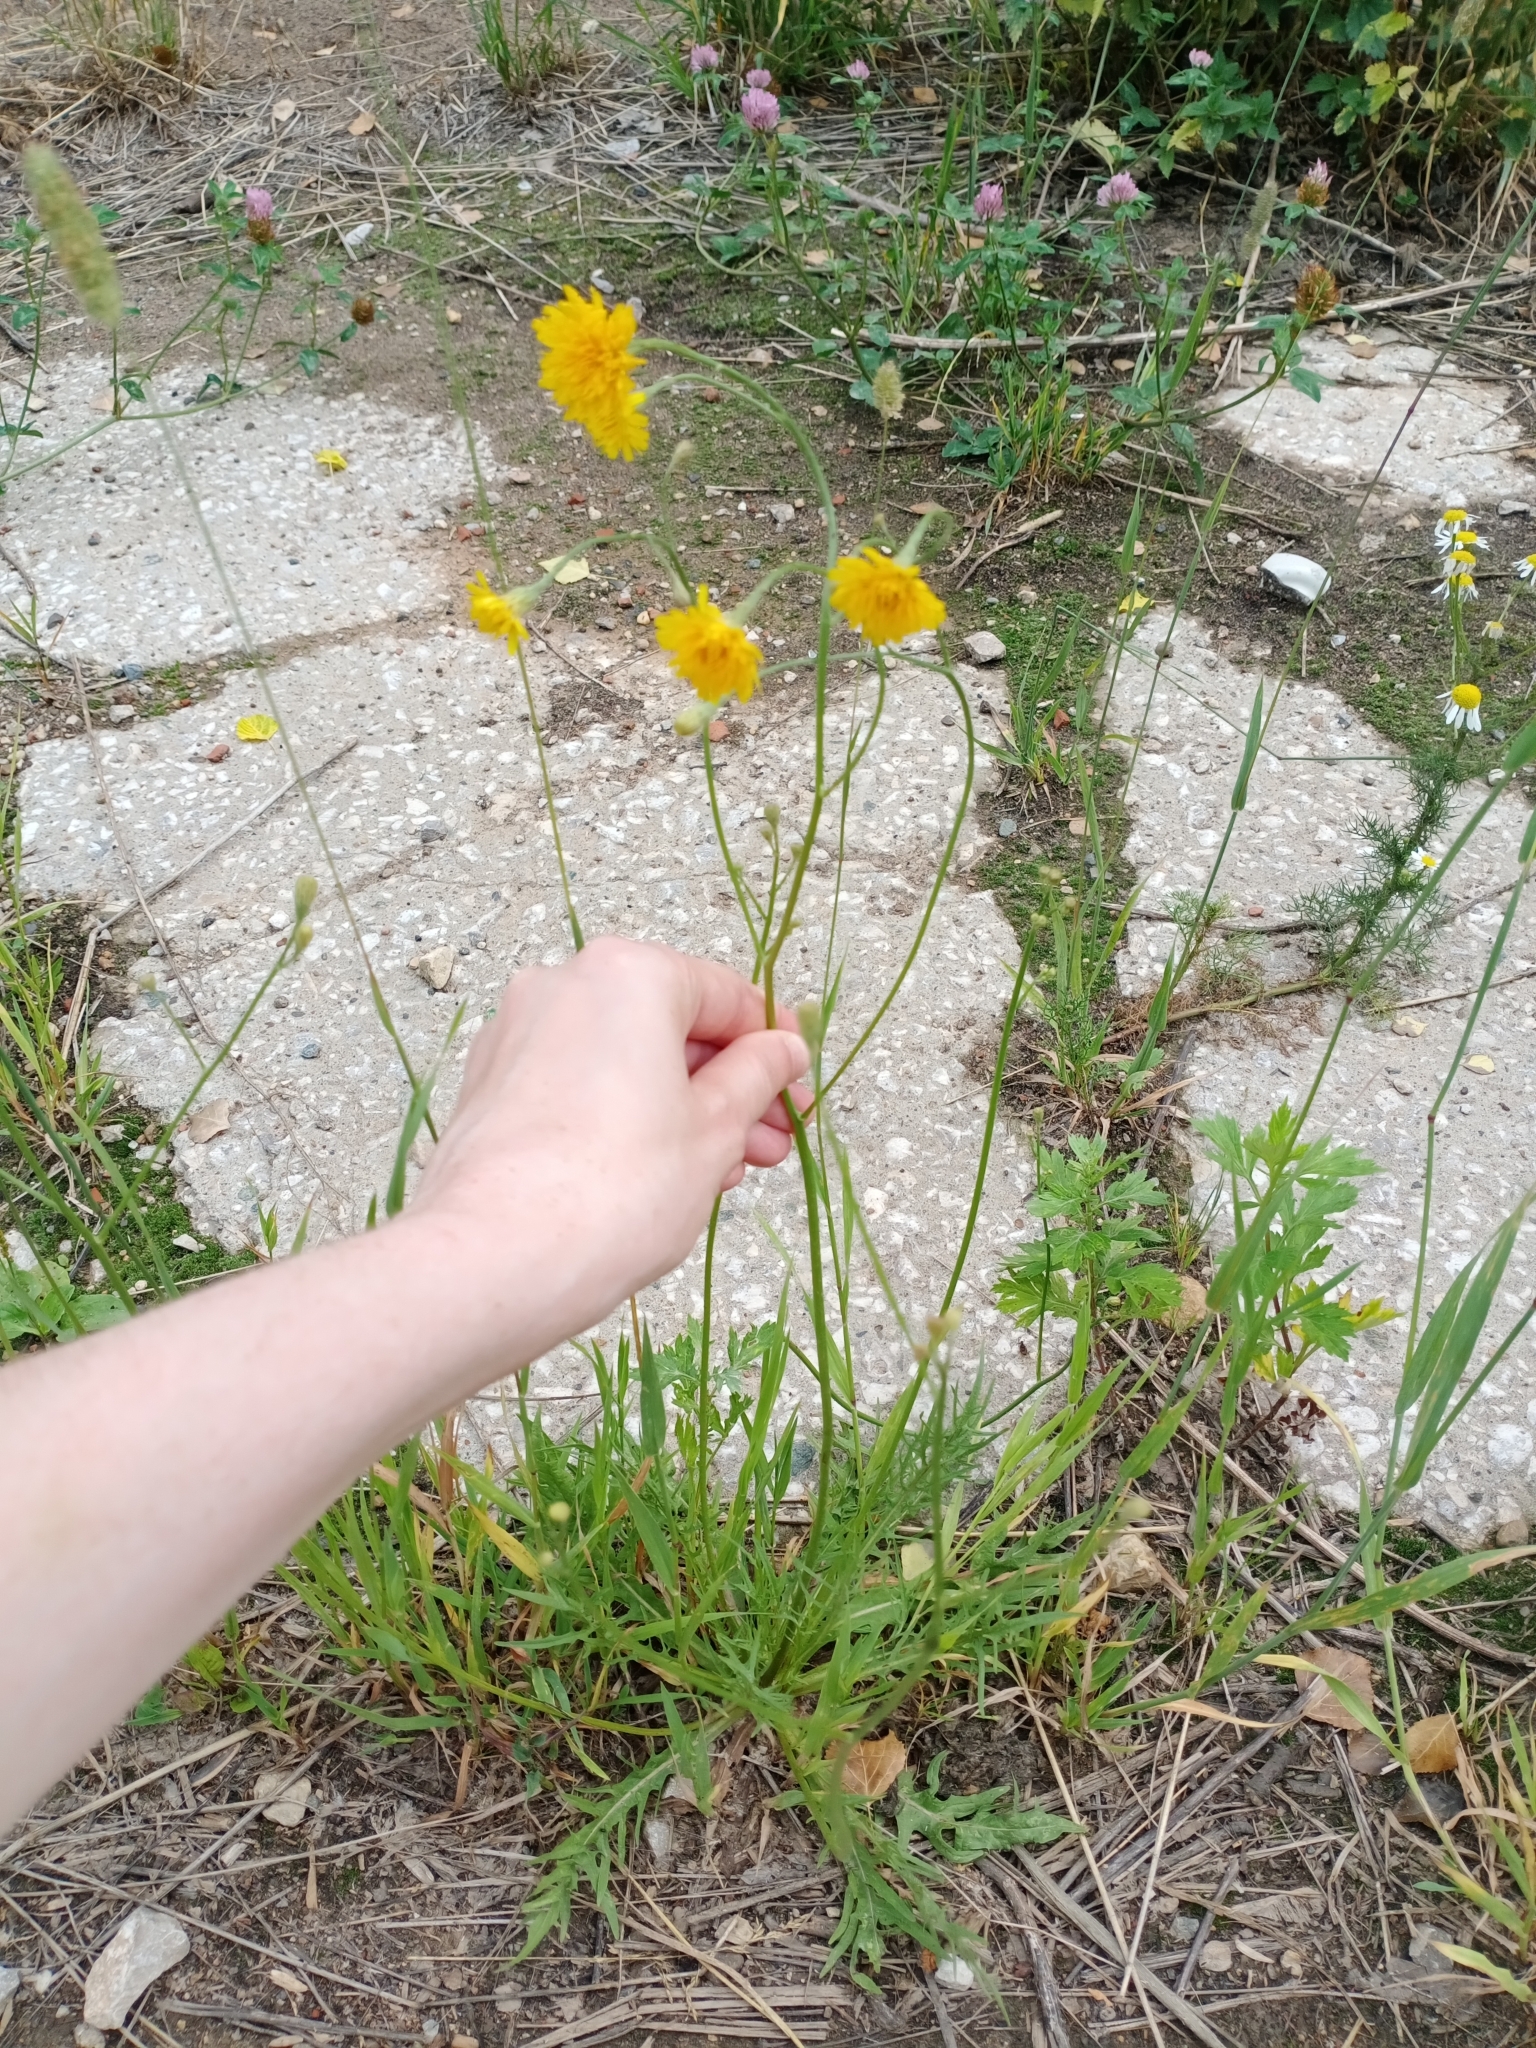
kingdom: Plantae
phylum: Tracheophyta
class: Magnoliopsida
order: Asterales
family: Asteraceae
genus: Scorzoneroides
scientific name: Scorzoneroides autumnalis
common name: Autumn hawkbit
